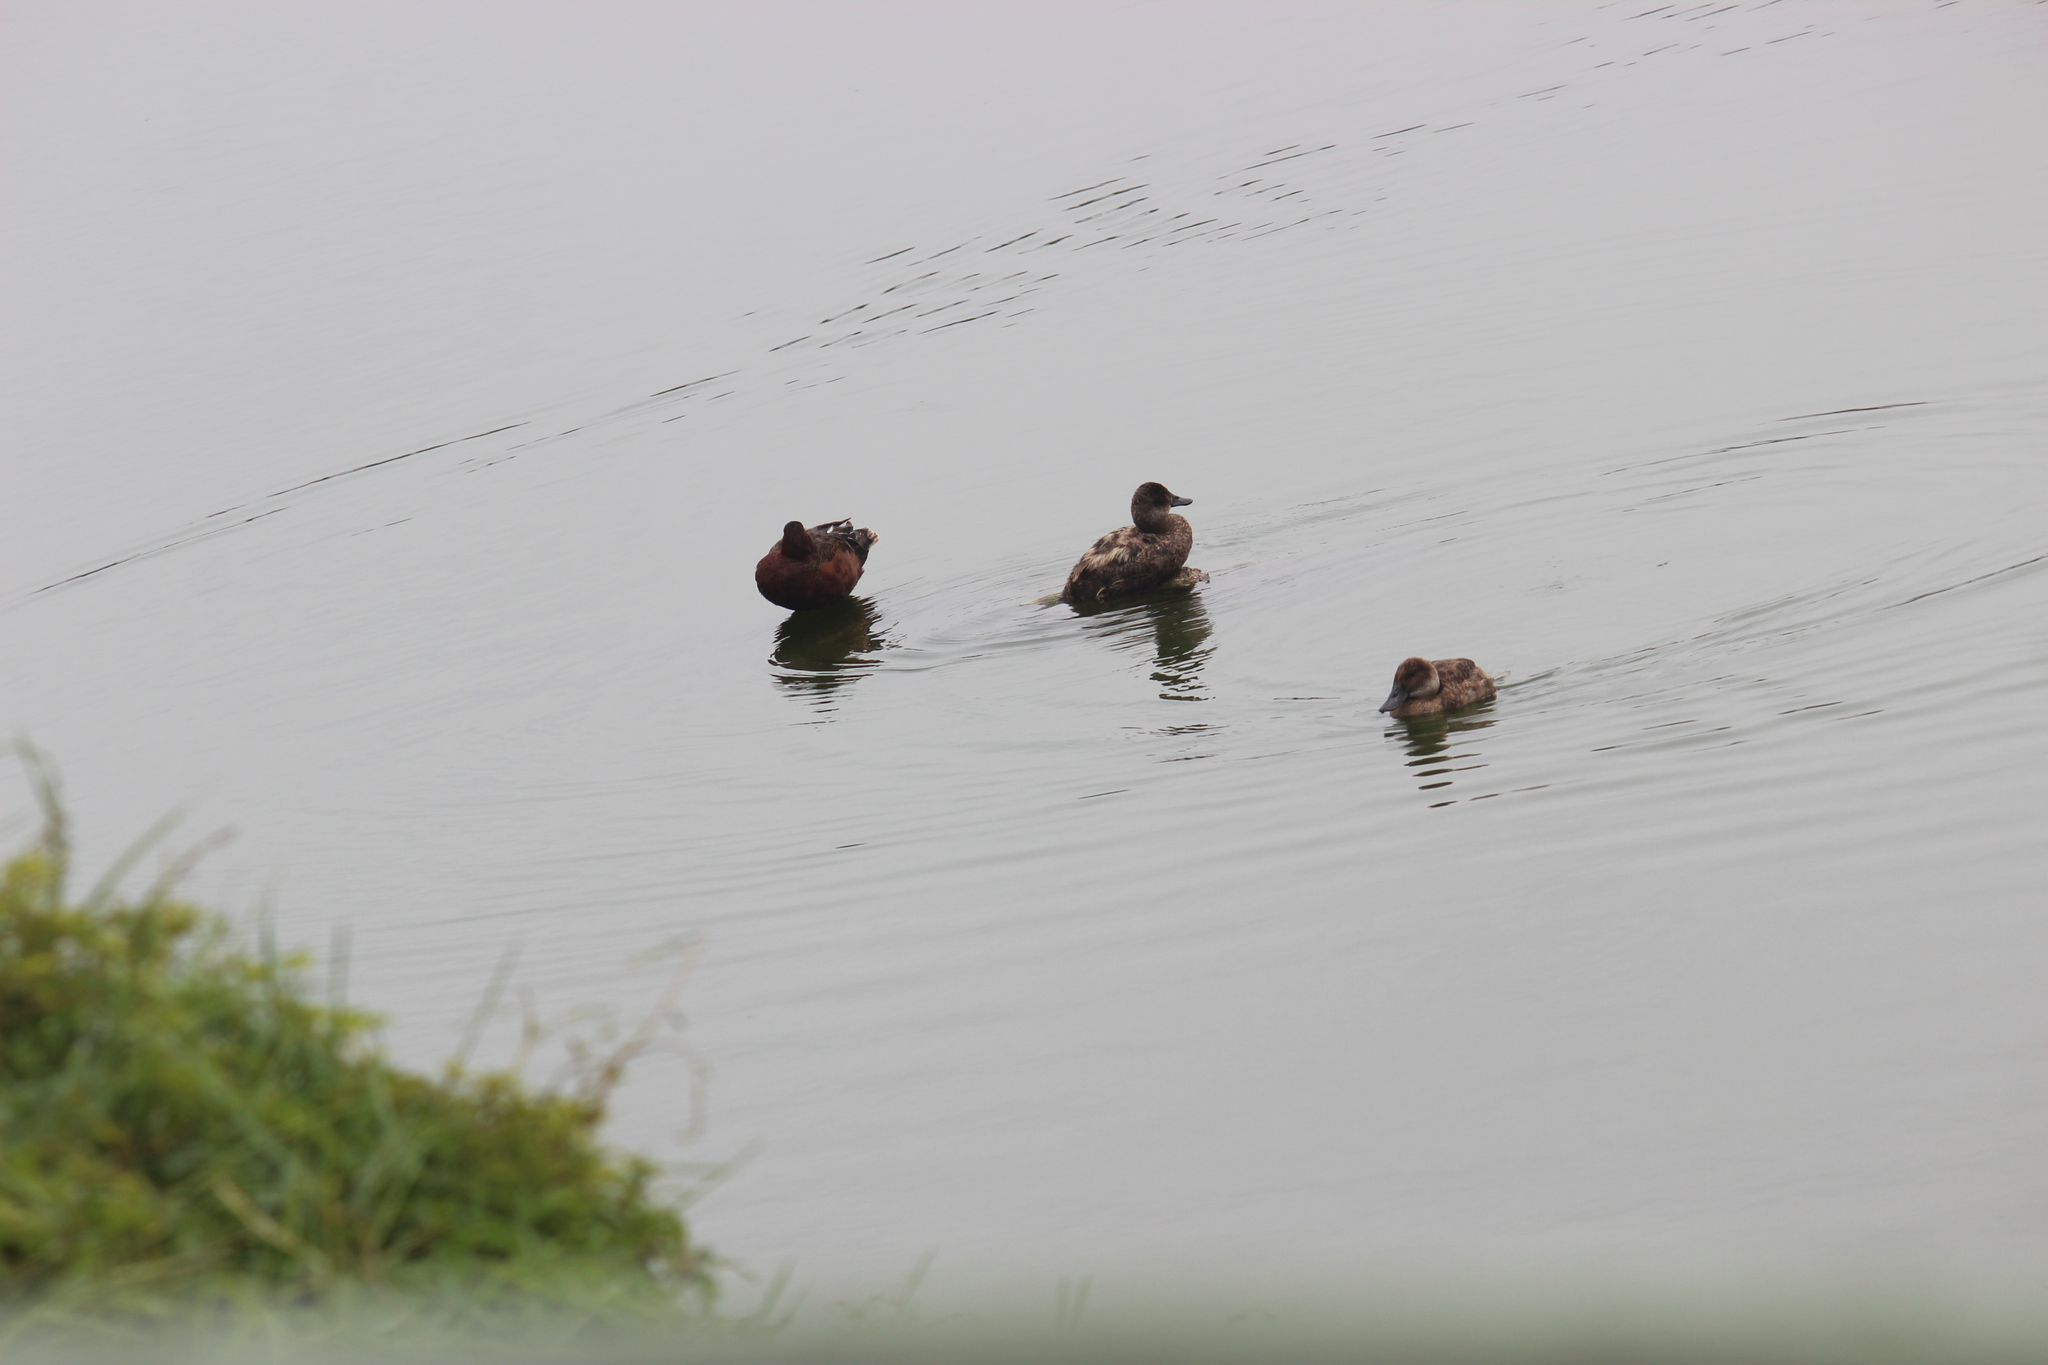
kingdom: Animalia
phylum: Chordata
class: Aves
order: Anseriformes
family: Anatidae
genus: Oxyura
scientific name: Oxyura ferruginea
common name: Andean duck
